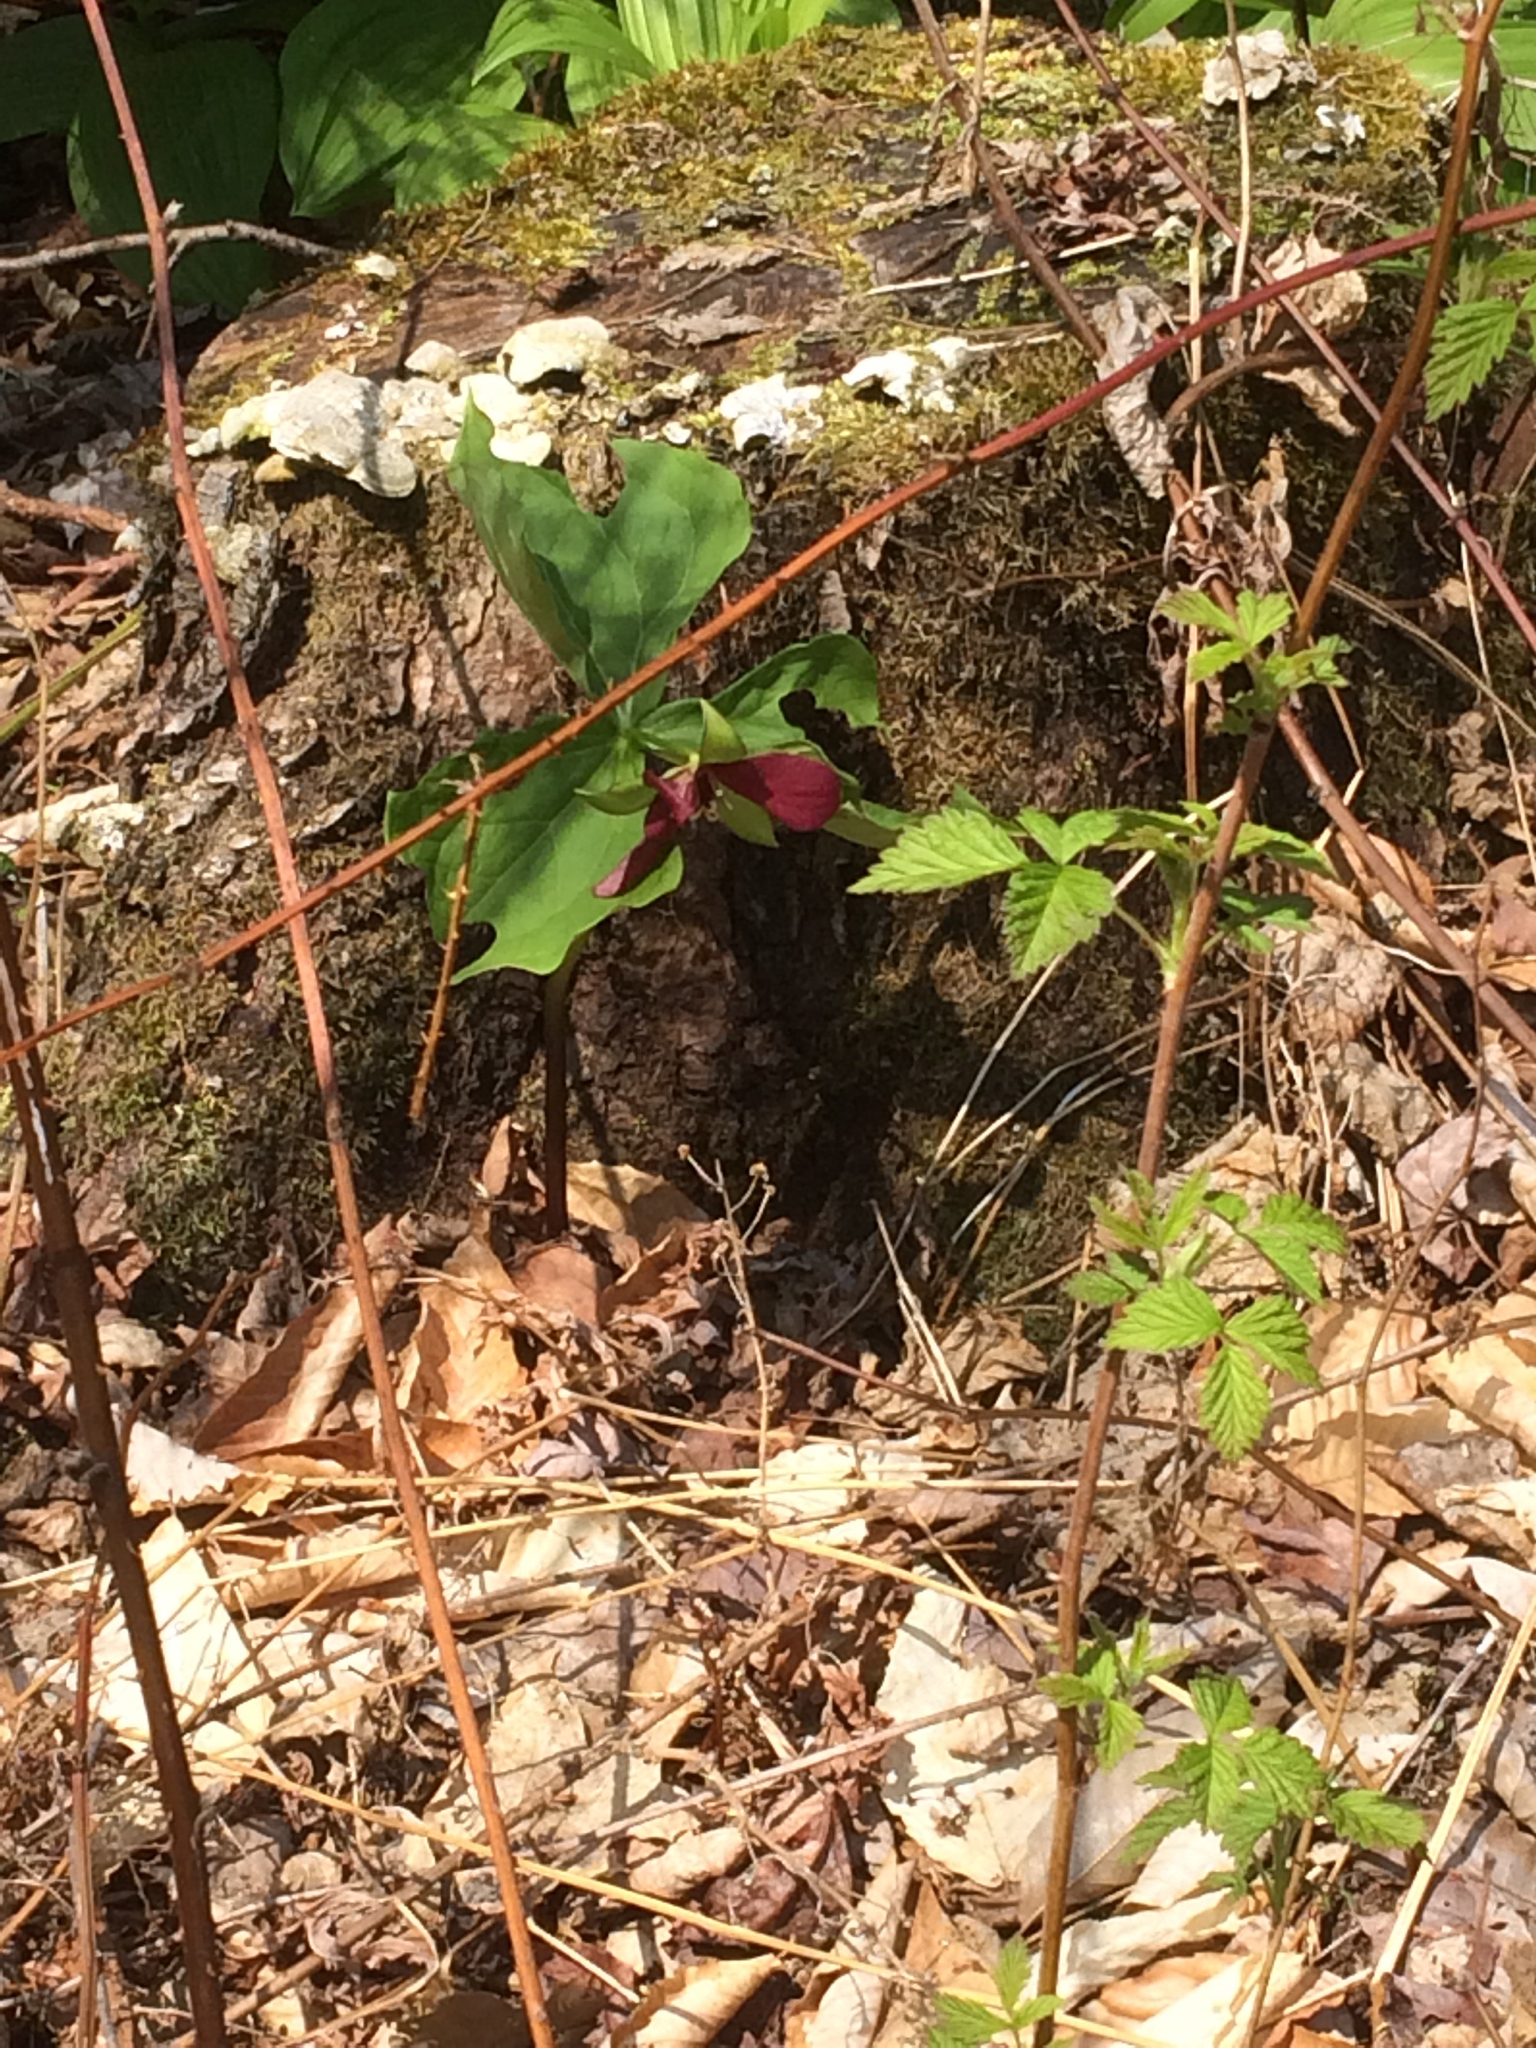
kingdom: Plantae
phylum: Tracheophyta
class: Liliopsida
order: Liliales
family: Melanthiaceae
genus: Trillium
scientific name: Trillium erectum
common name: Purple trillium
